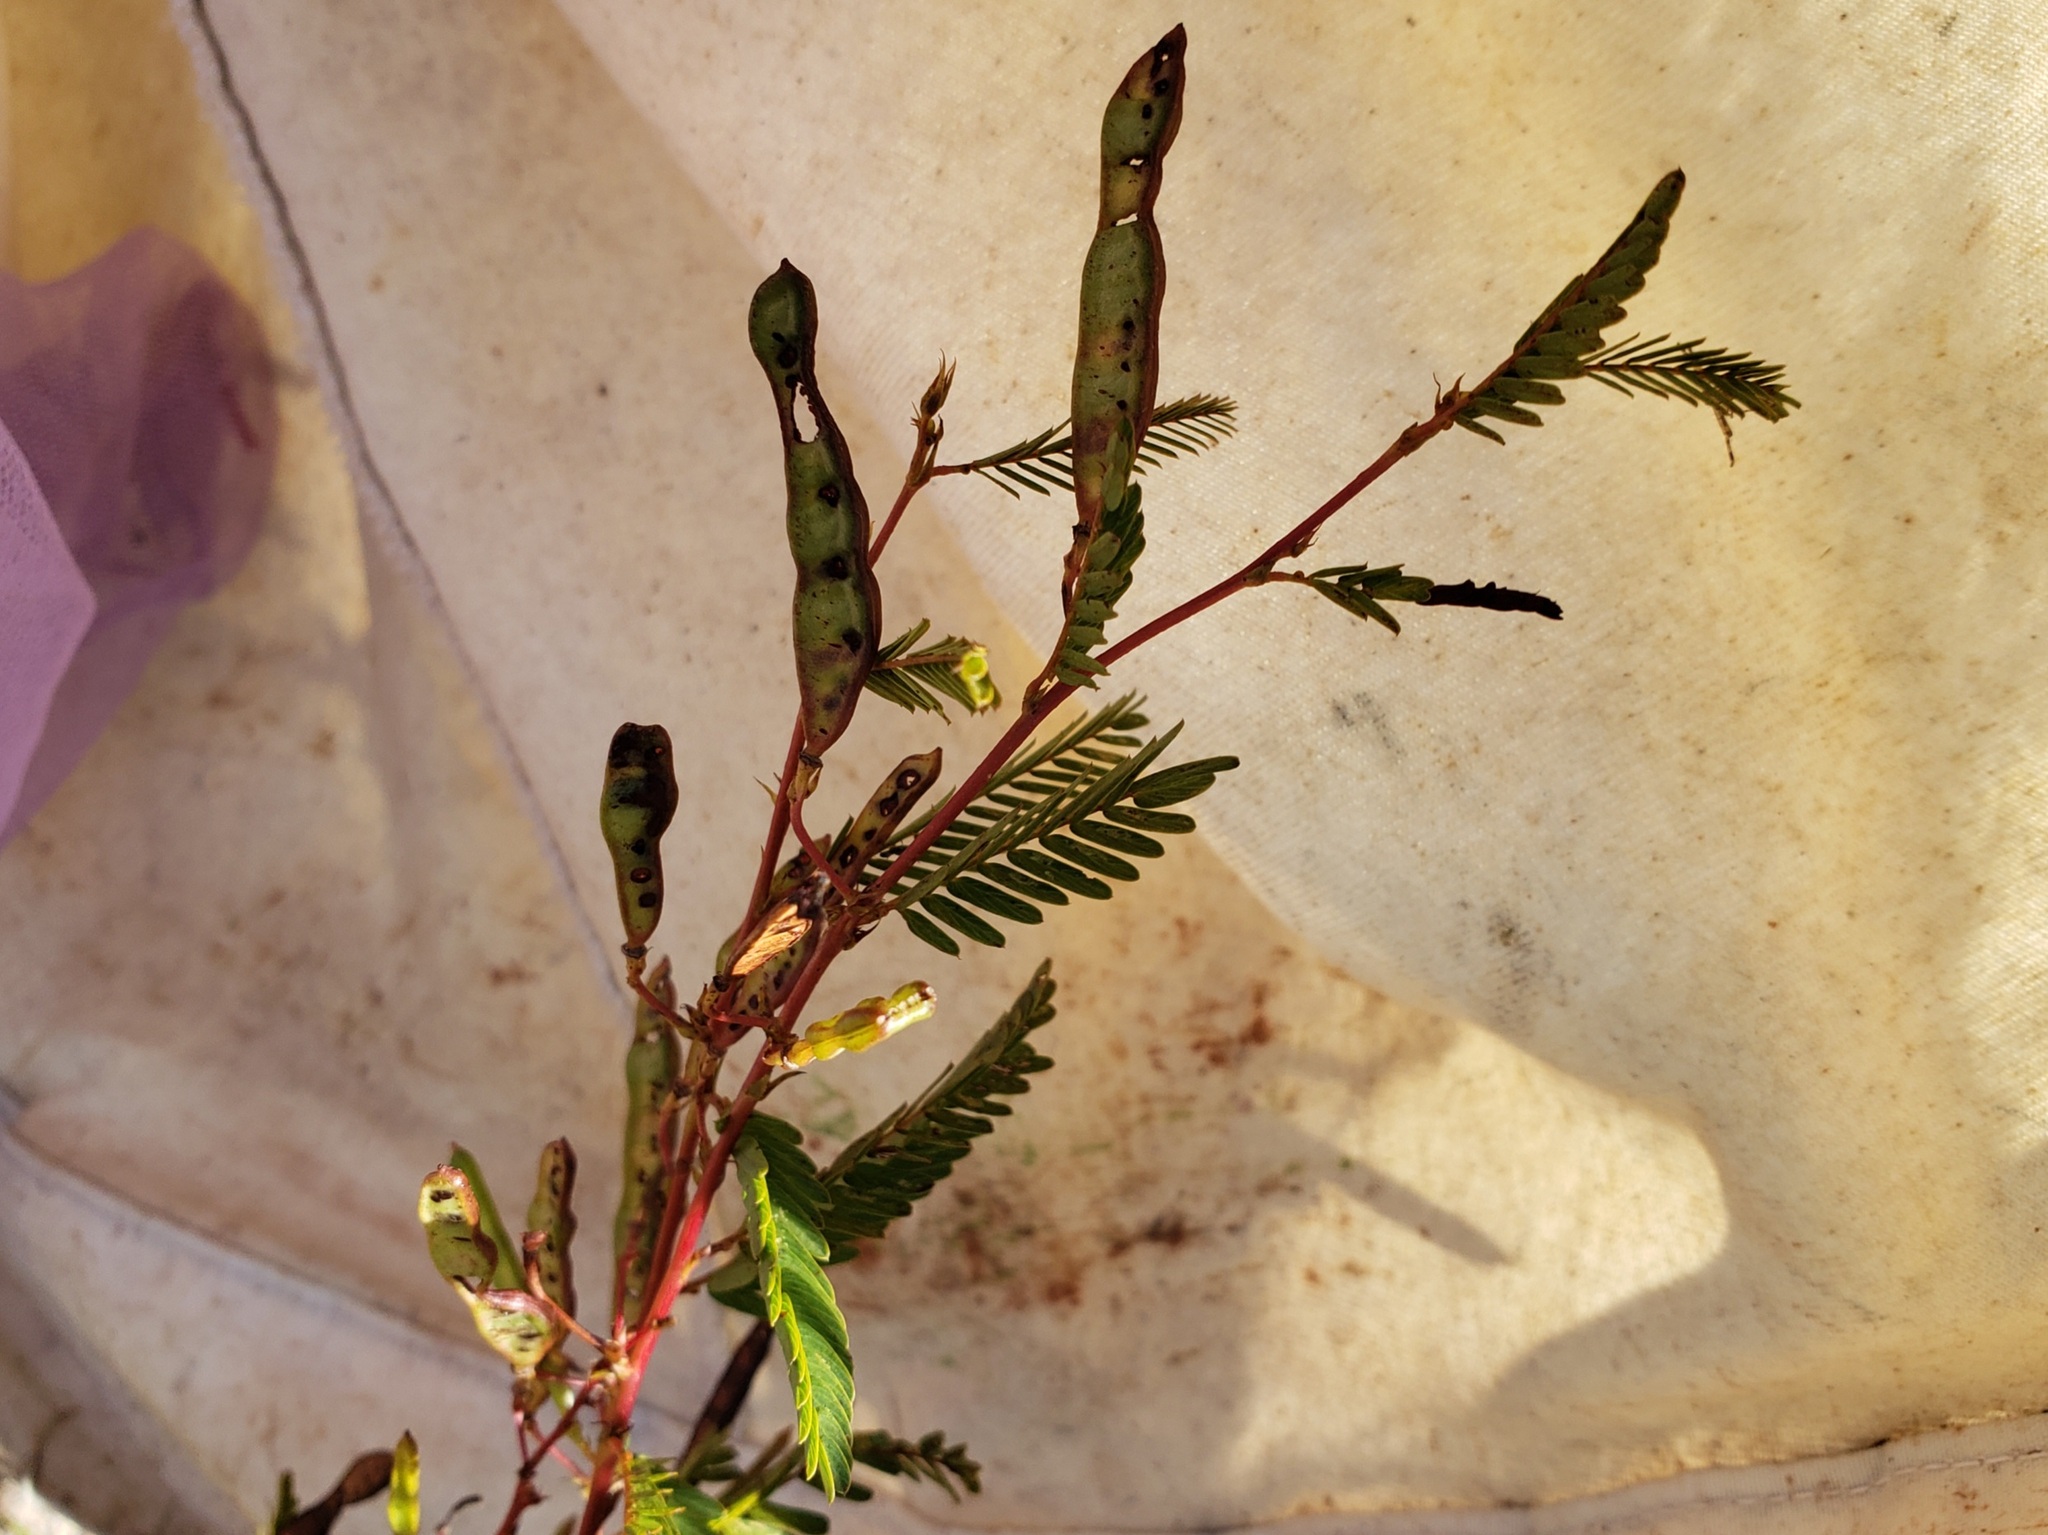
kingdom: Plantae
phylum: Tracheophyta
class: Magnoliopsida
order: Fabales
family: Fabaceae
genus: Chamaecrista
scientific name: Chamaecrista fasciculata
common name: Golden cassia
